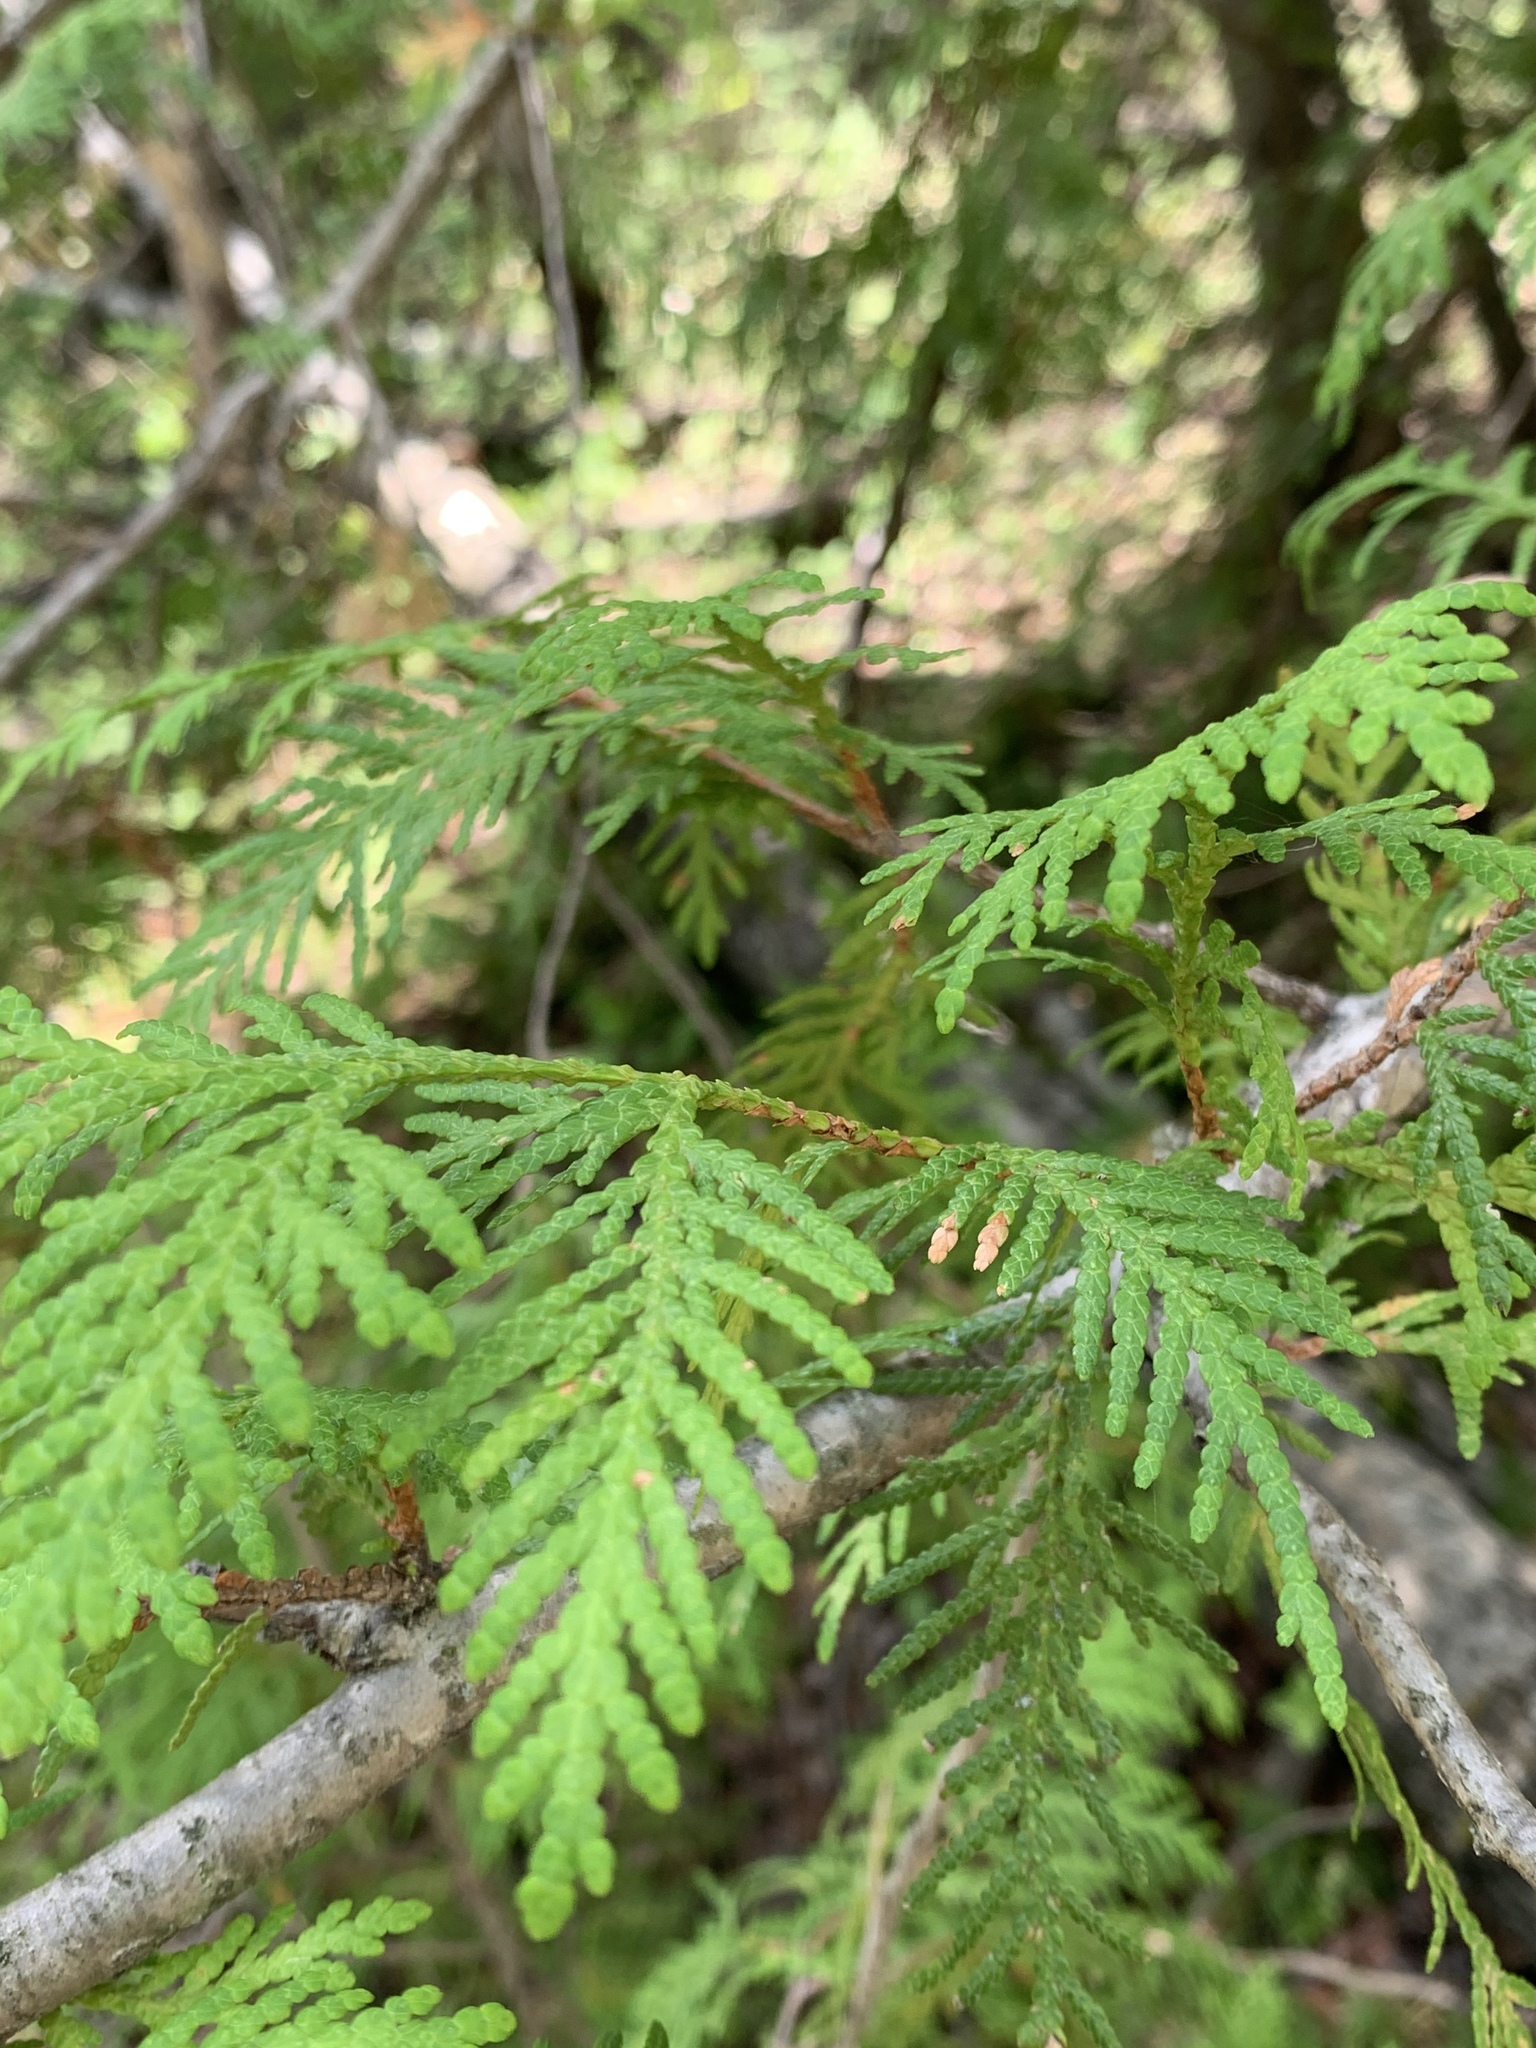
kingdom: Plantae
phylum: Tracheophyta
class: Pinopsida
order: Pinales
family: Cupressaceae
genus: Thuja
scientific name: Thuja occidentalis
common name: Northern white-cedar
